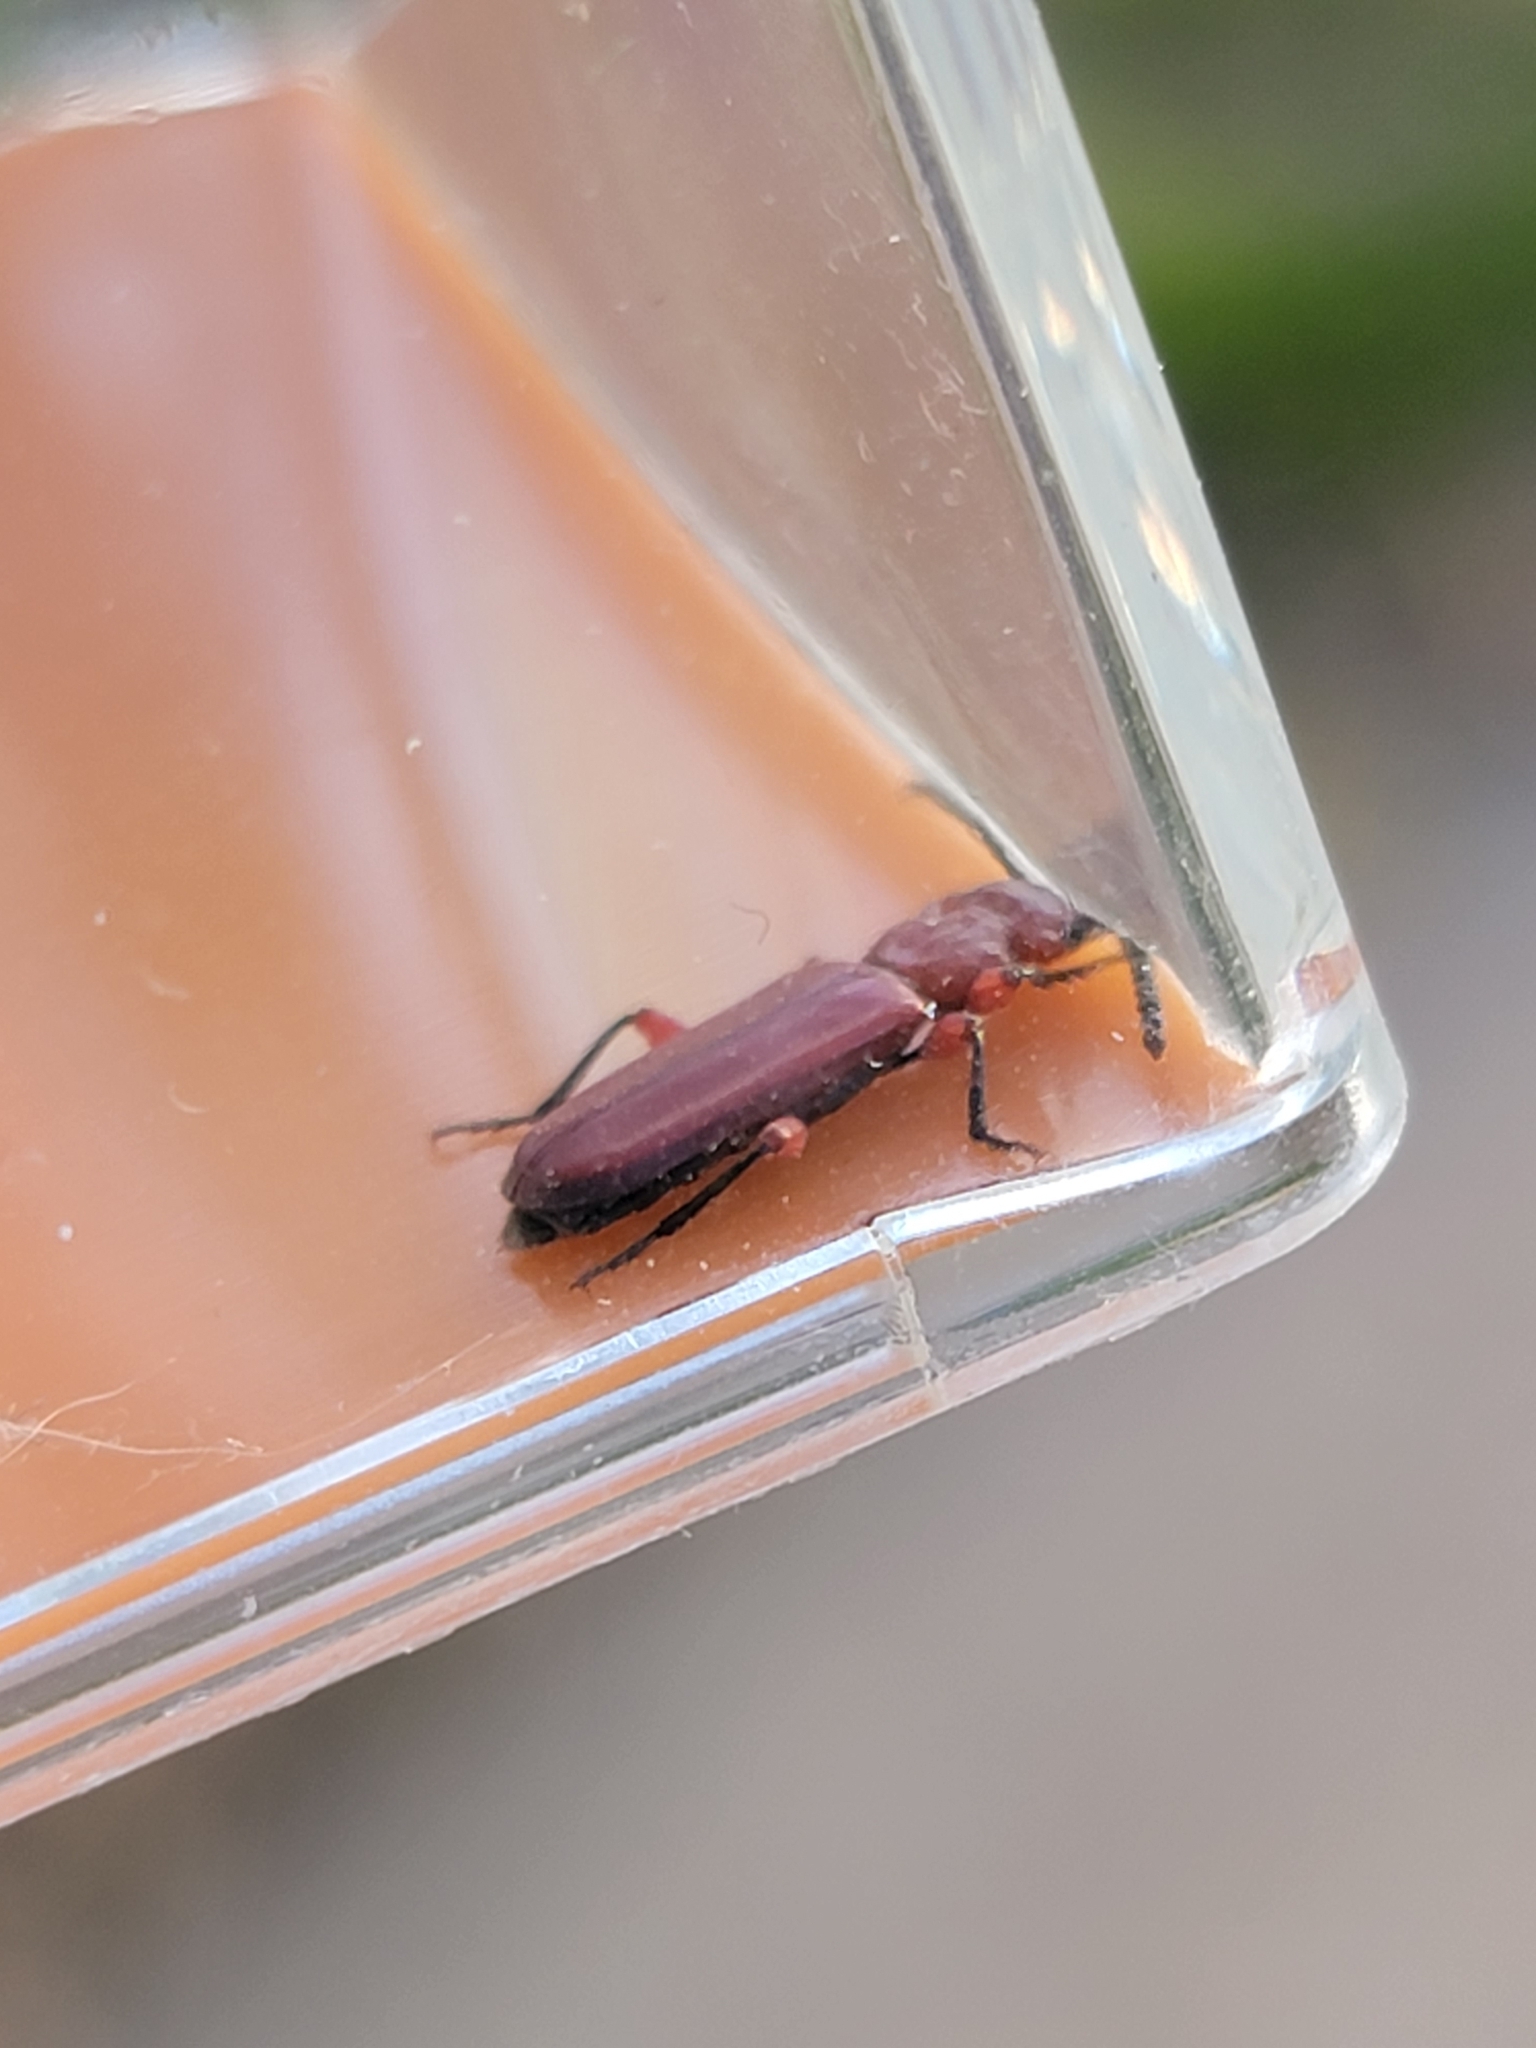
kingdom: Animalia
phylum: Arthropoda
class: Insecta
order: Coleoptera
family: Cucujidae
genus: Cucujus
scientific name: Cucujus clavipes
